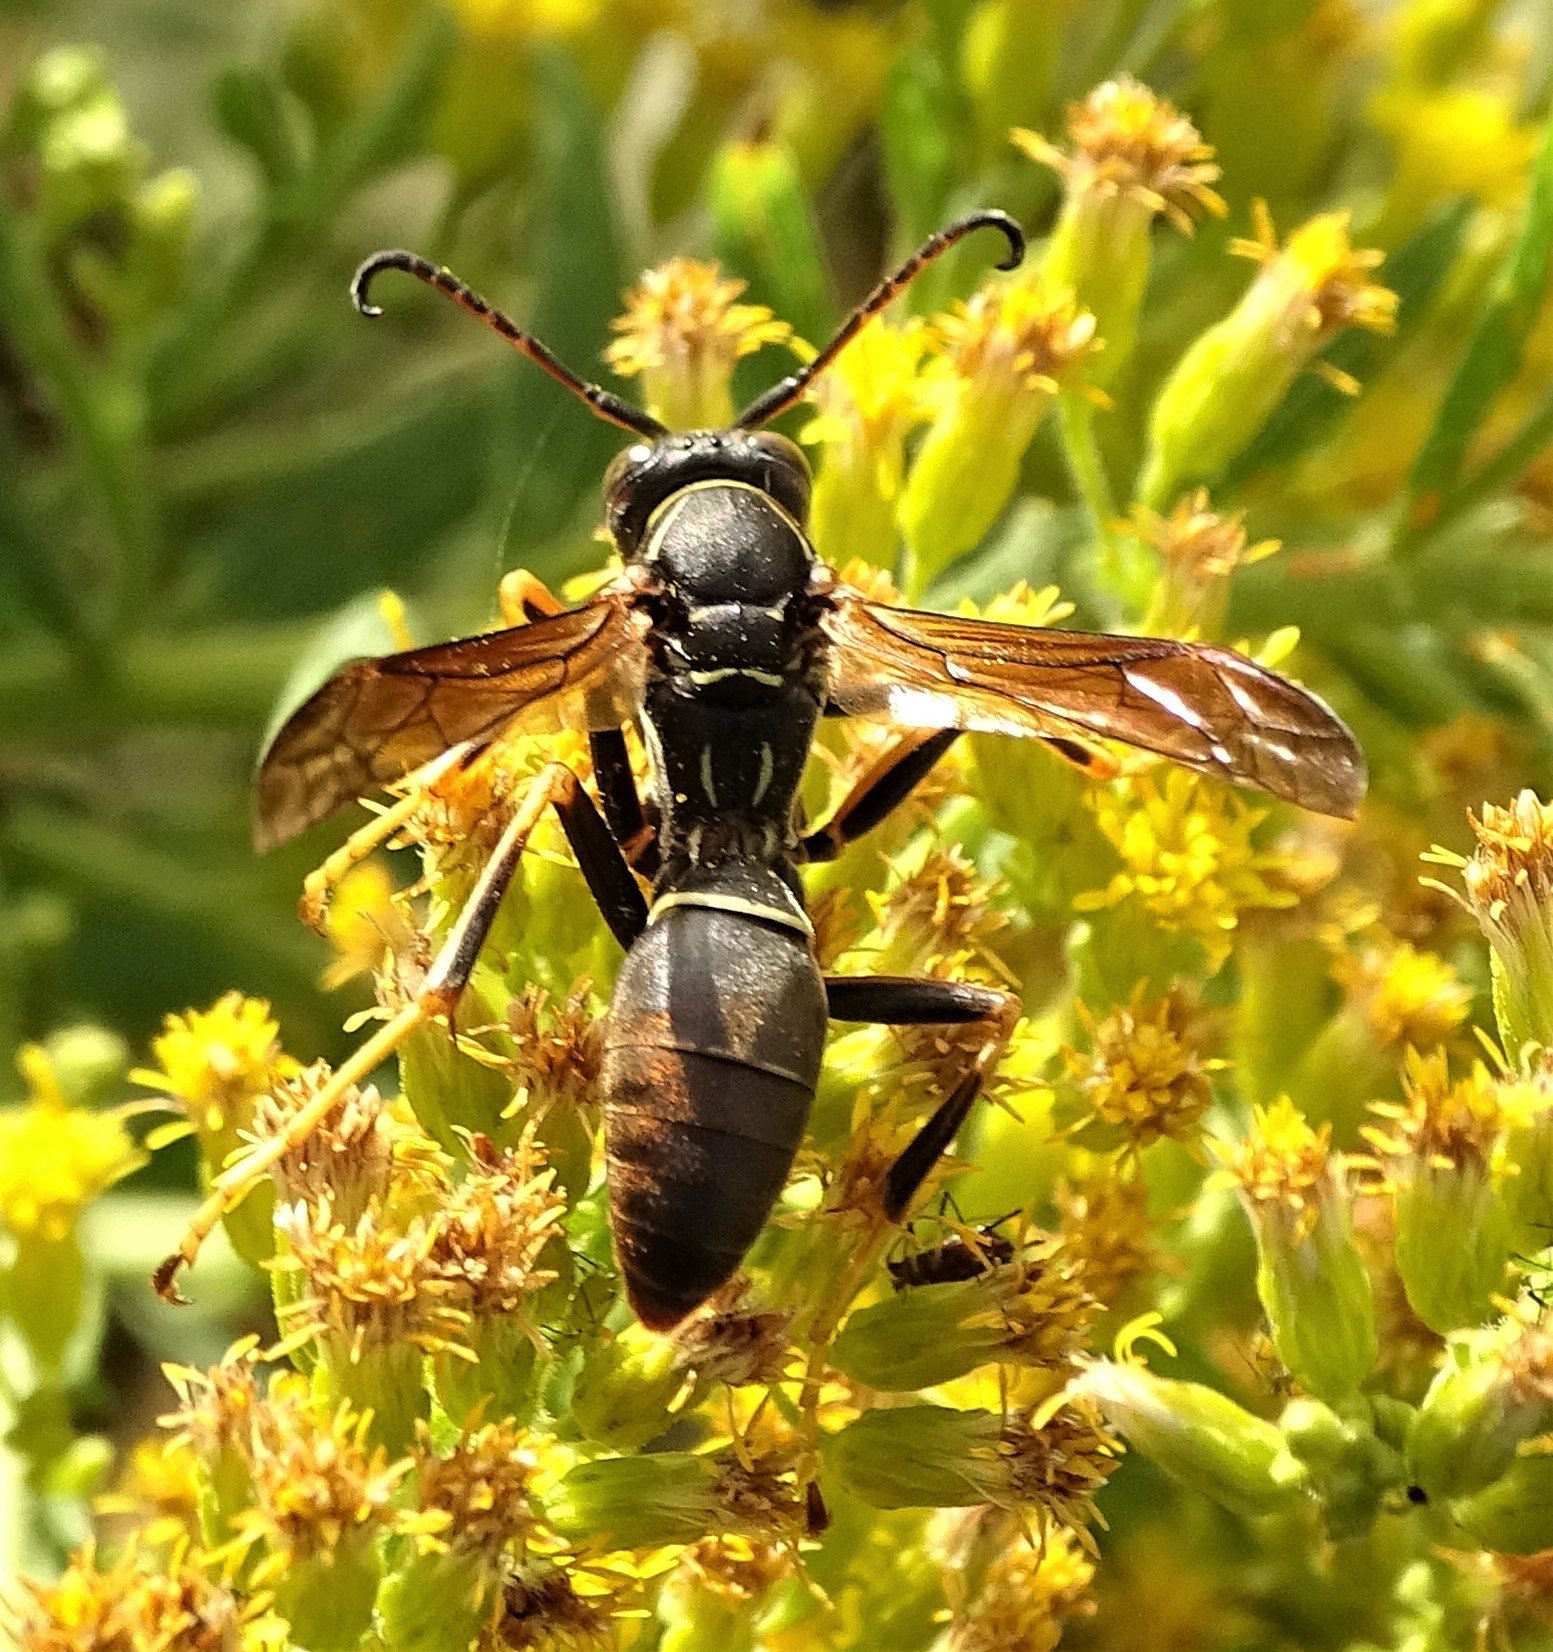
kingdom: Animalia
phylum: Arthropoda
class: Insecta
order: Hymenoptera
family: Eumenidae
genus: Polistes
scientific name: Polistes fuscatus
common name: Dark paper wasp
